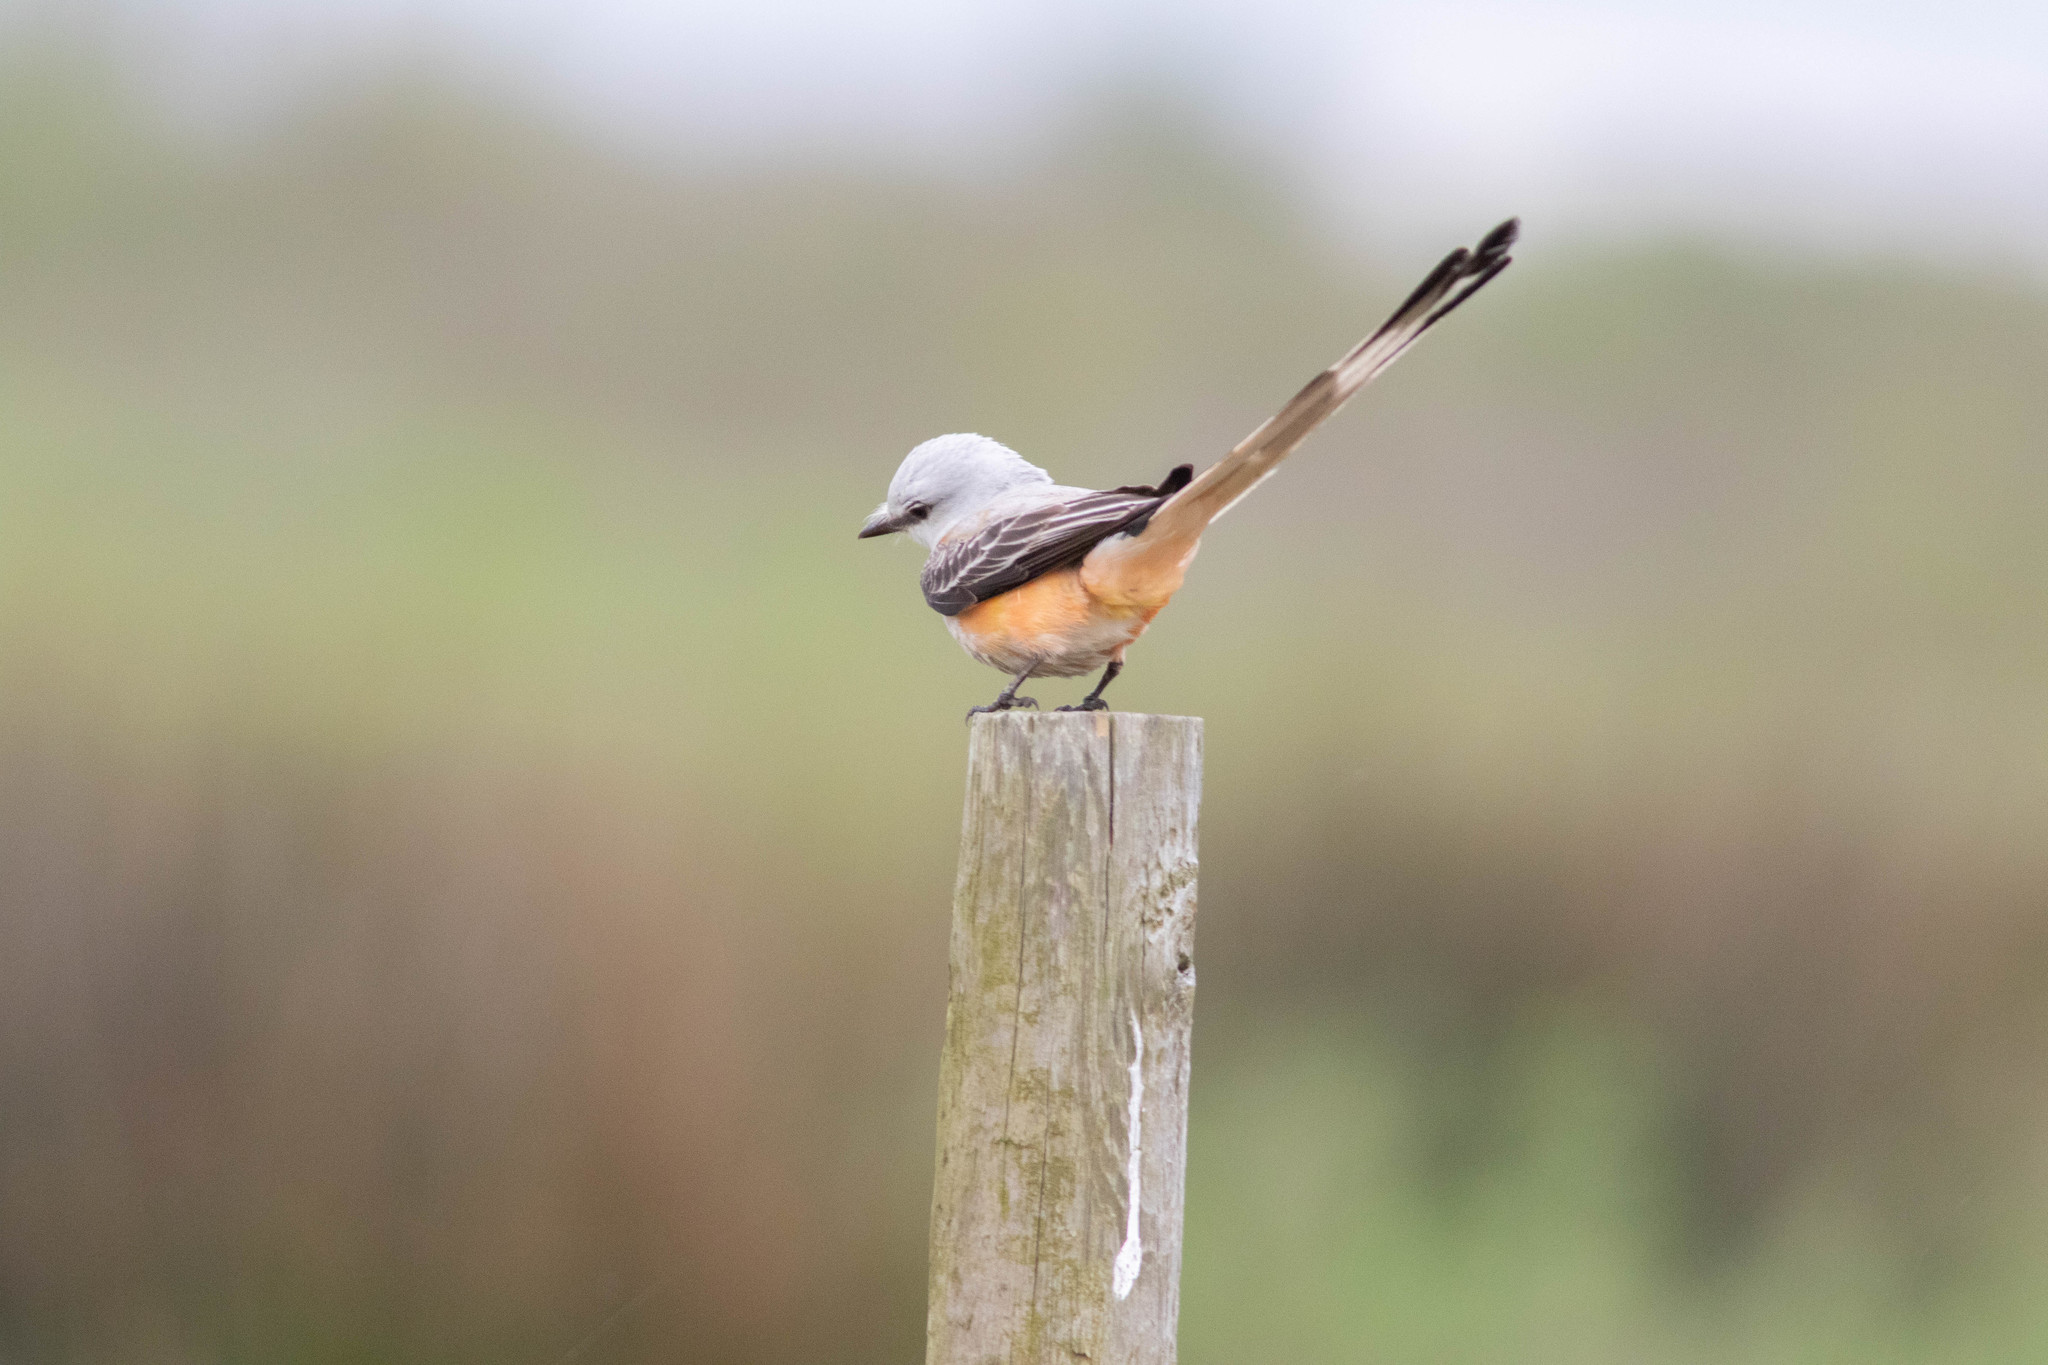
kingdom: Animalia
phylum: Chordata
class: Aves
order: Passeriformes
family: Tyrannidae
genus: Tyrannus
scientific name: Tyrannus forficatus
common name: Scissor-tailed flycatcher
